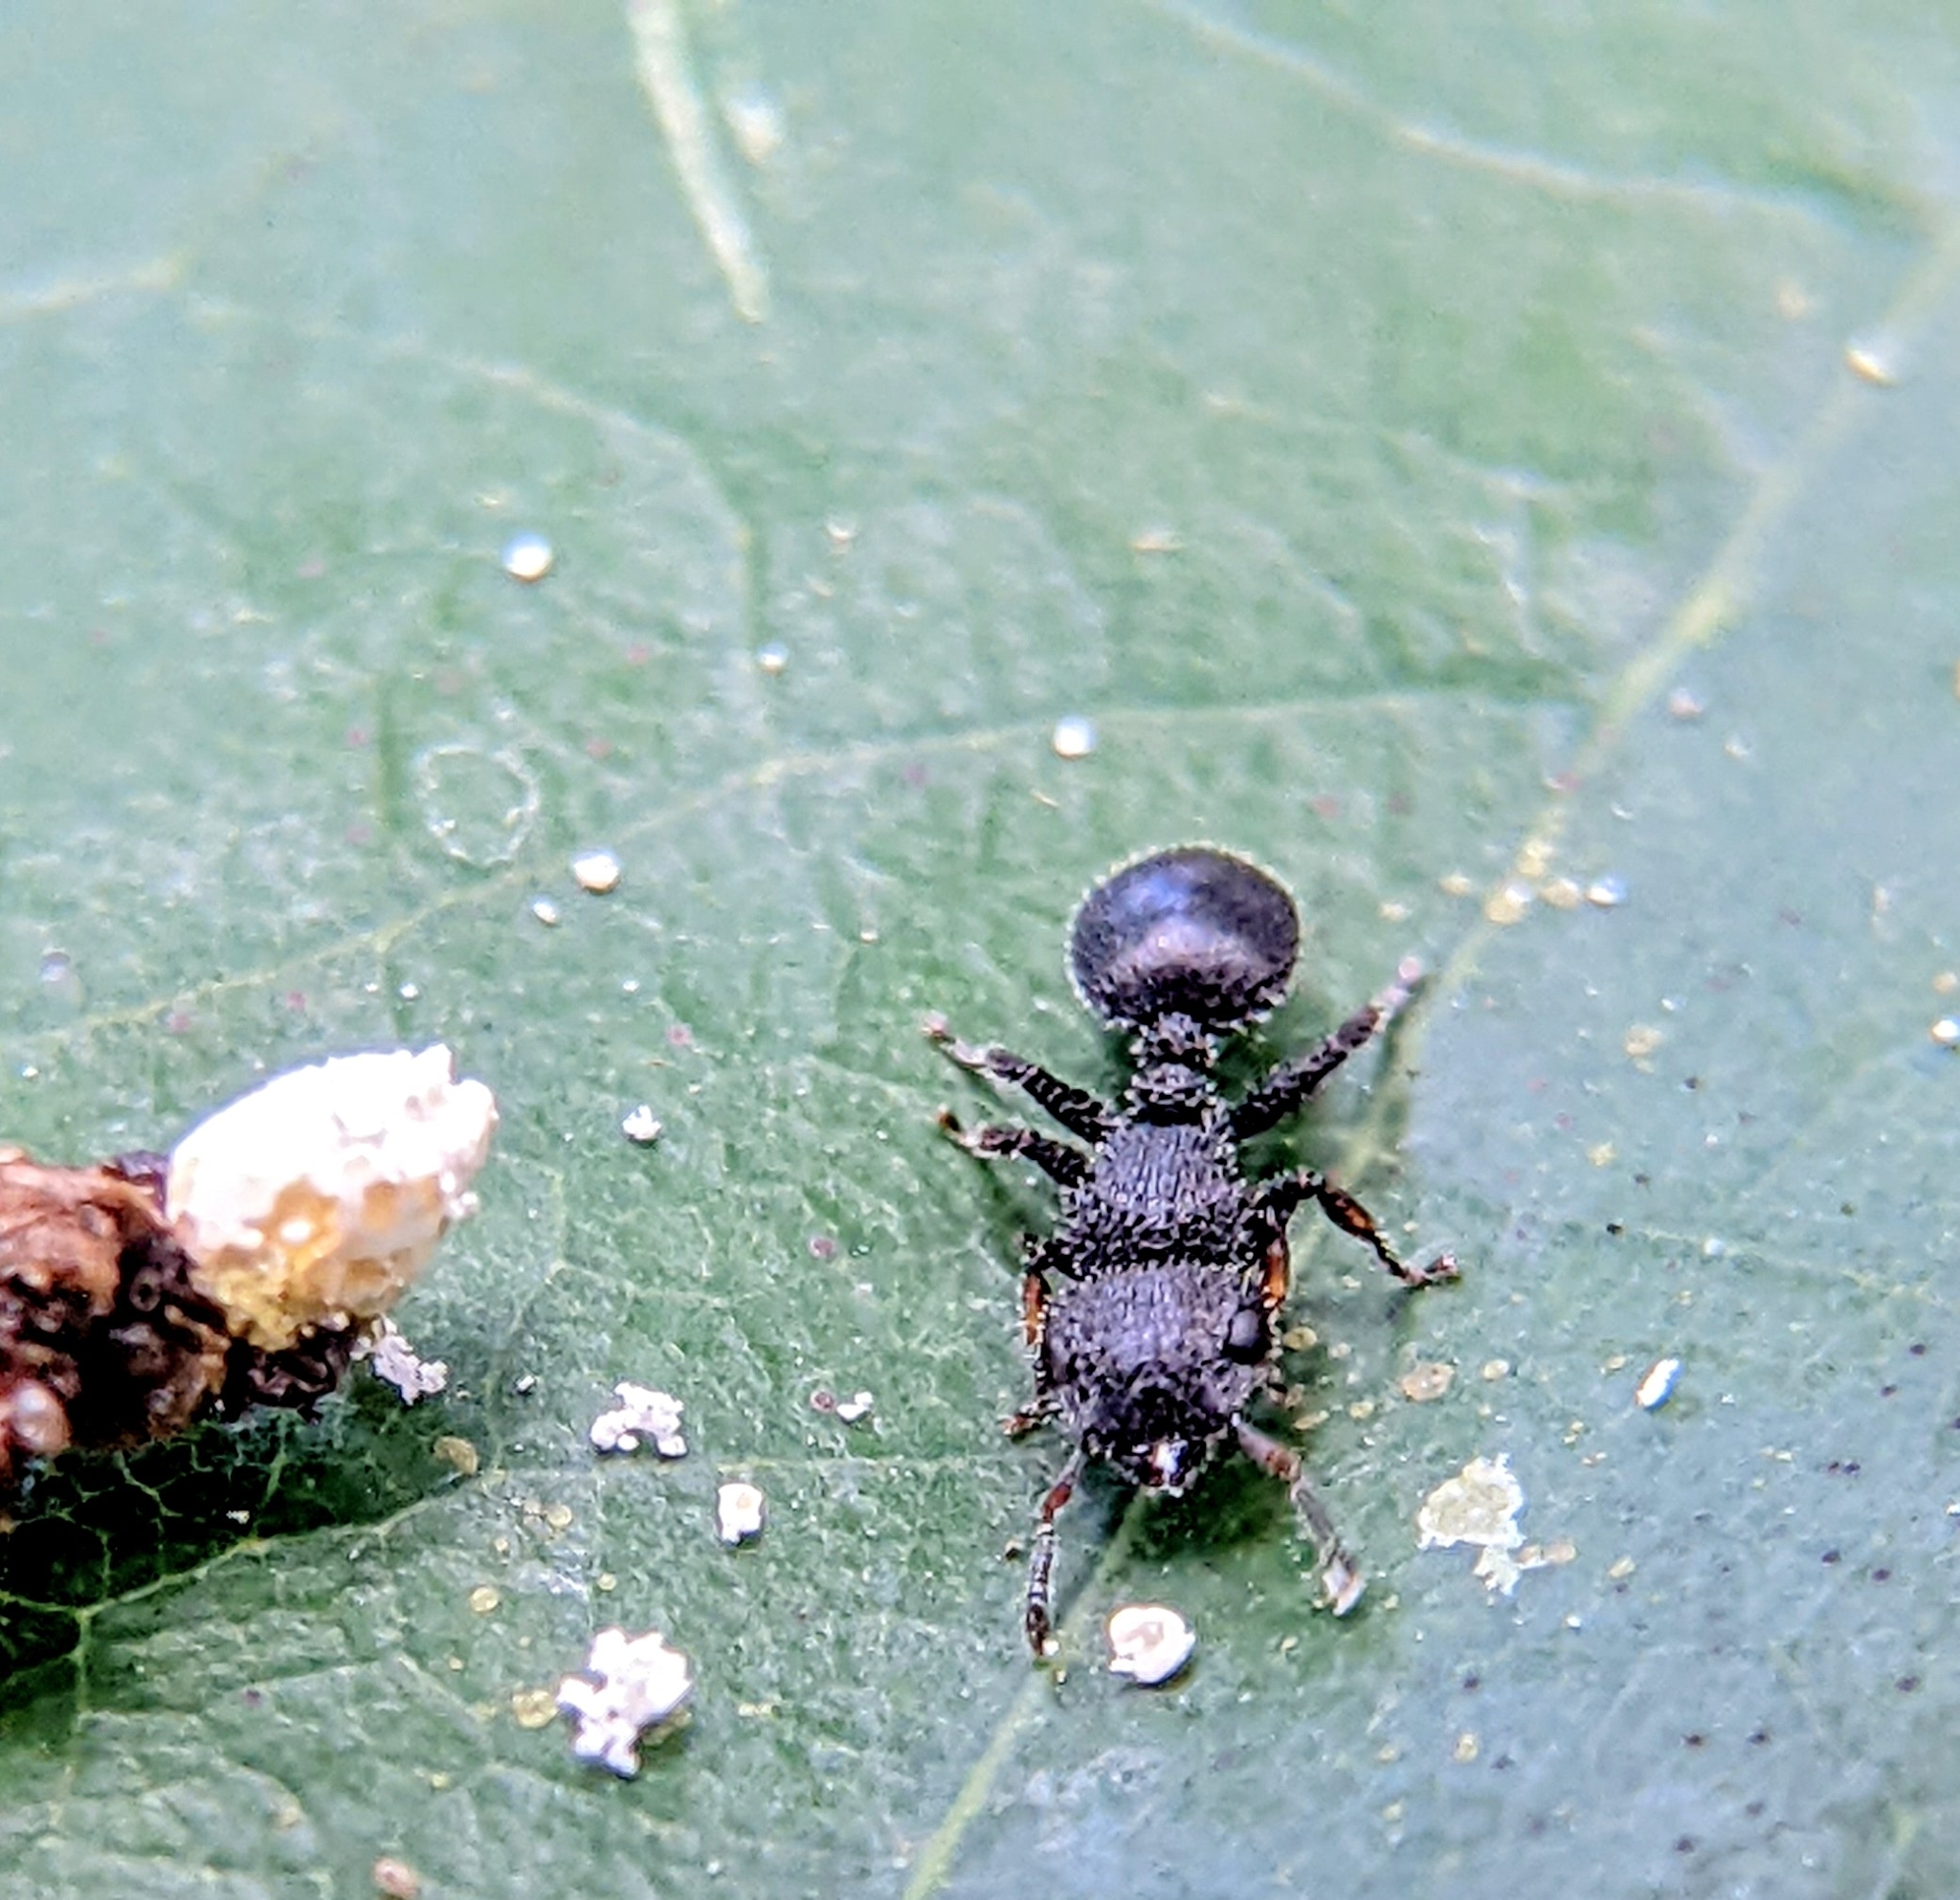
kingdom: Animalia
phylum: Arthropoda
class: Insecta
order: Hymenoptera
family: Formicidae
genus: Cataulacus
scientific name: Cataulacus granulatus
